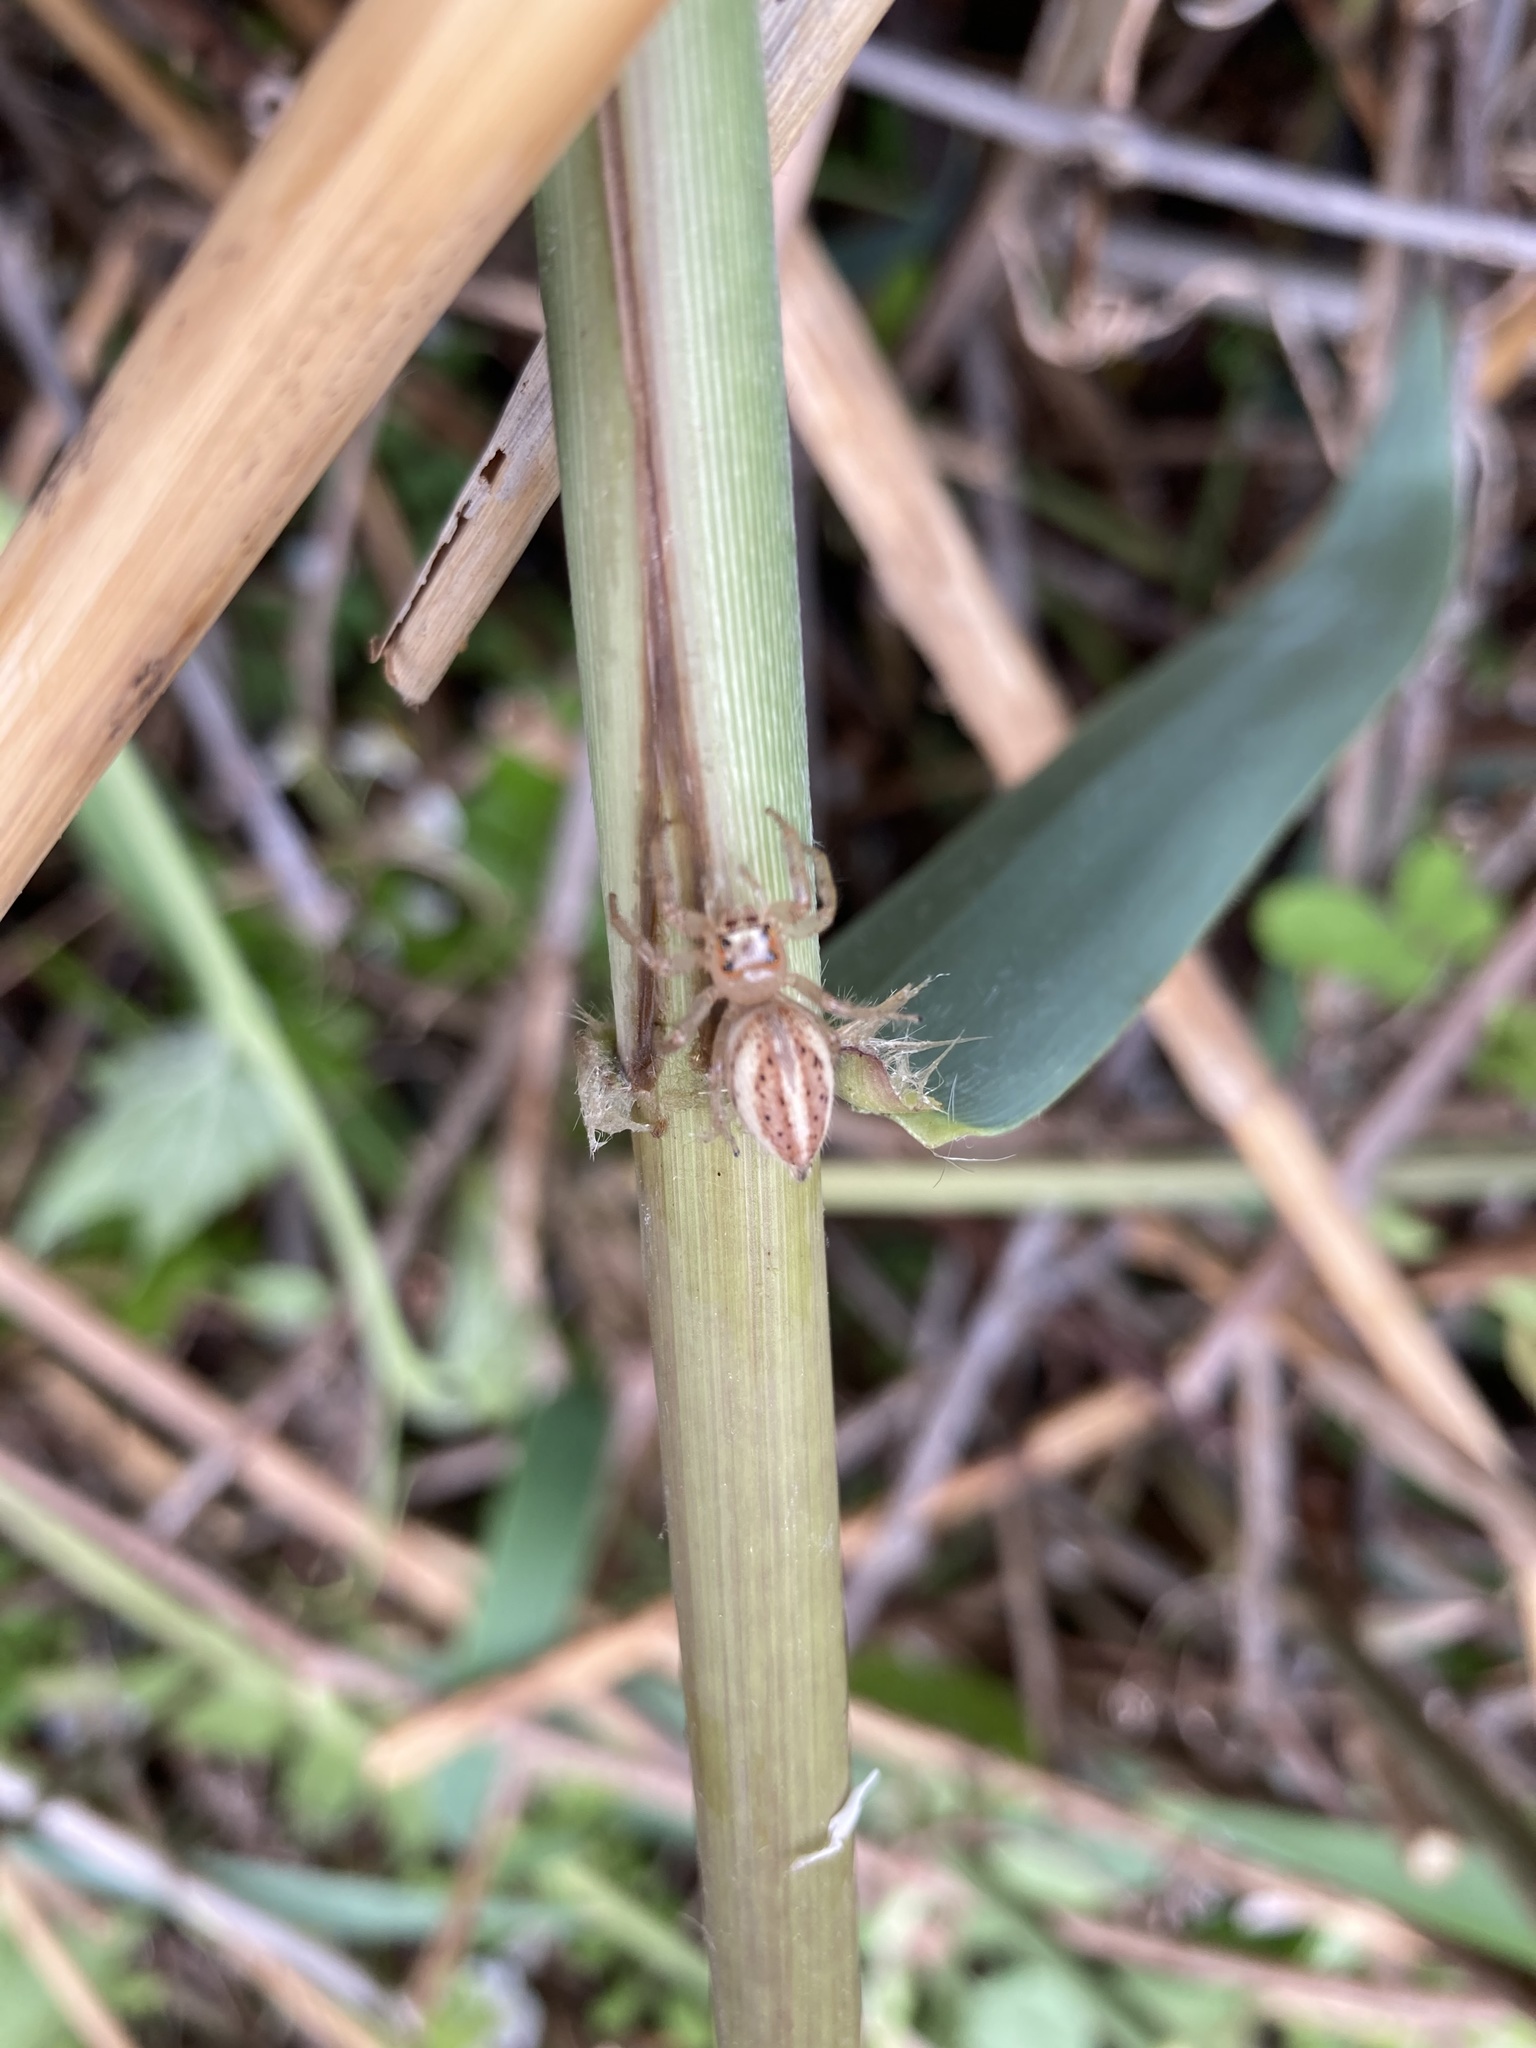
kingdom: Animalia
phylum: Arthropoda
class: Arachnida
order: Araneae
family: Salticidae
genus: Colonus
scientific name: Colonus sylvanus
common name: Jumping spiders
